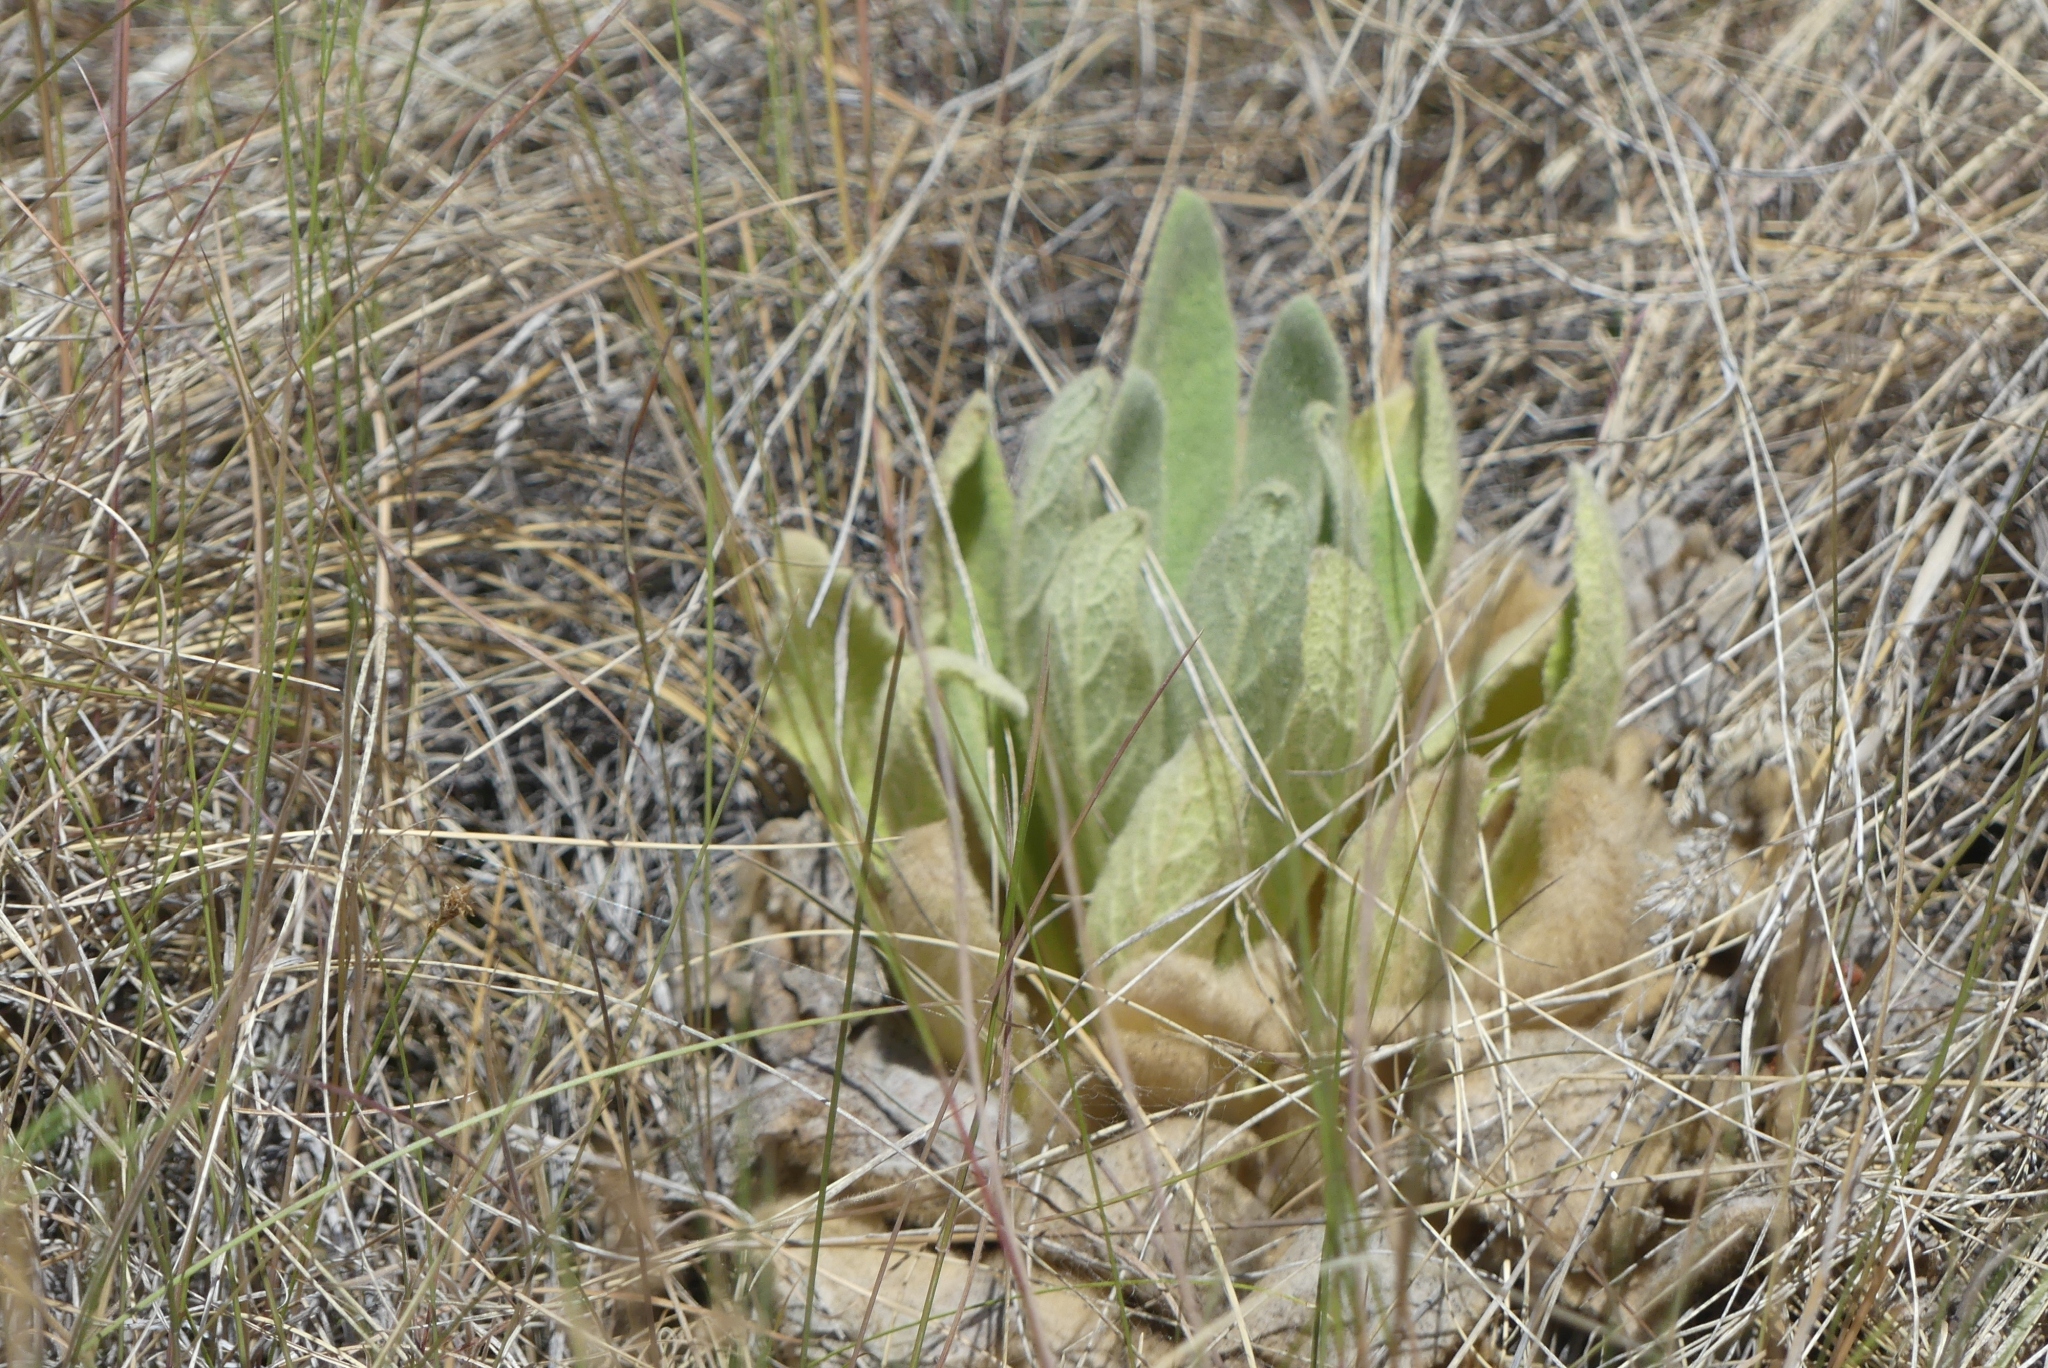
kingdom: Plantae
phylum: Tracheophyta
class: Magnoliopsida
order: Lamiales
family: Scrophulariaceae
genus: Verbascum
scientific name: Verbascum thapsus
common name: Common mullein
